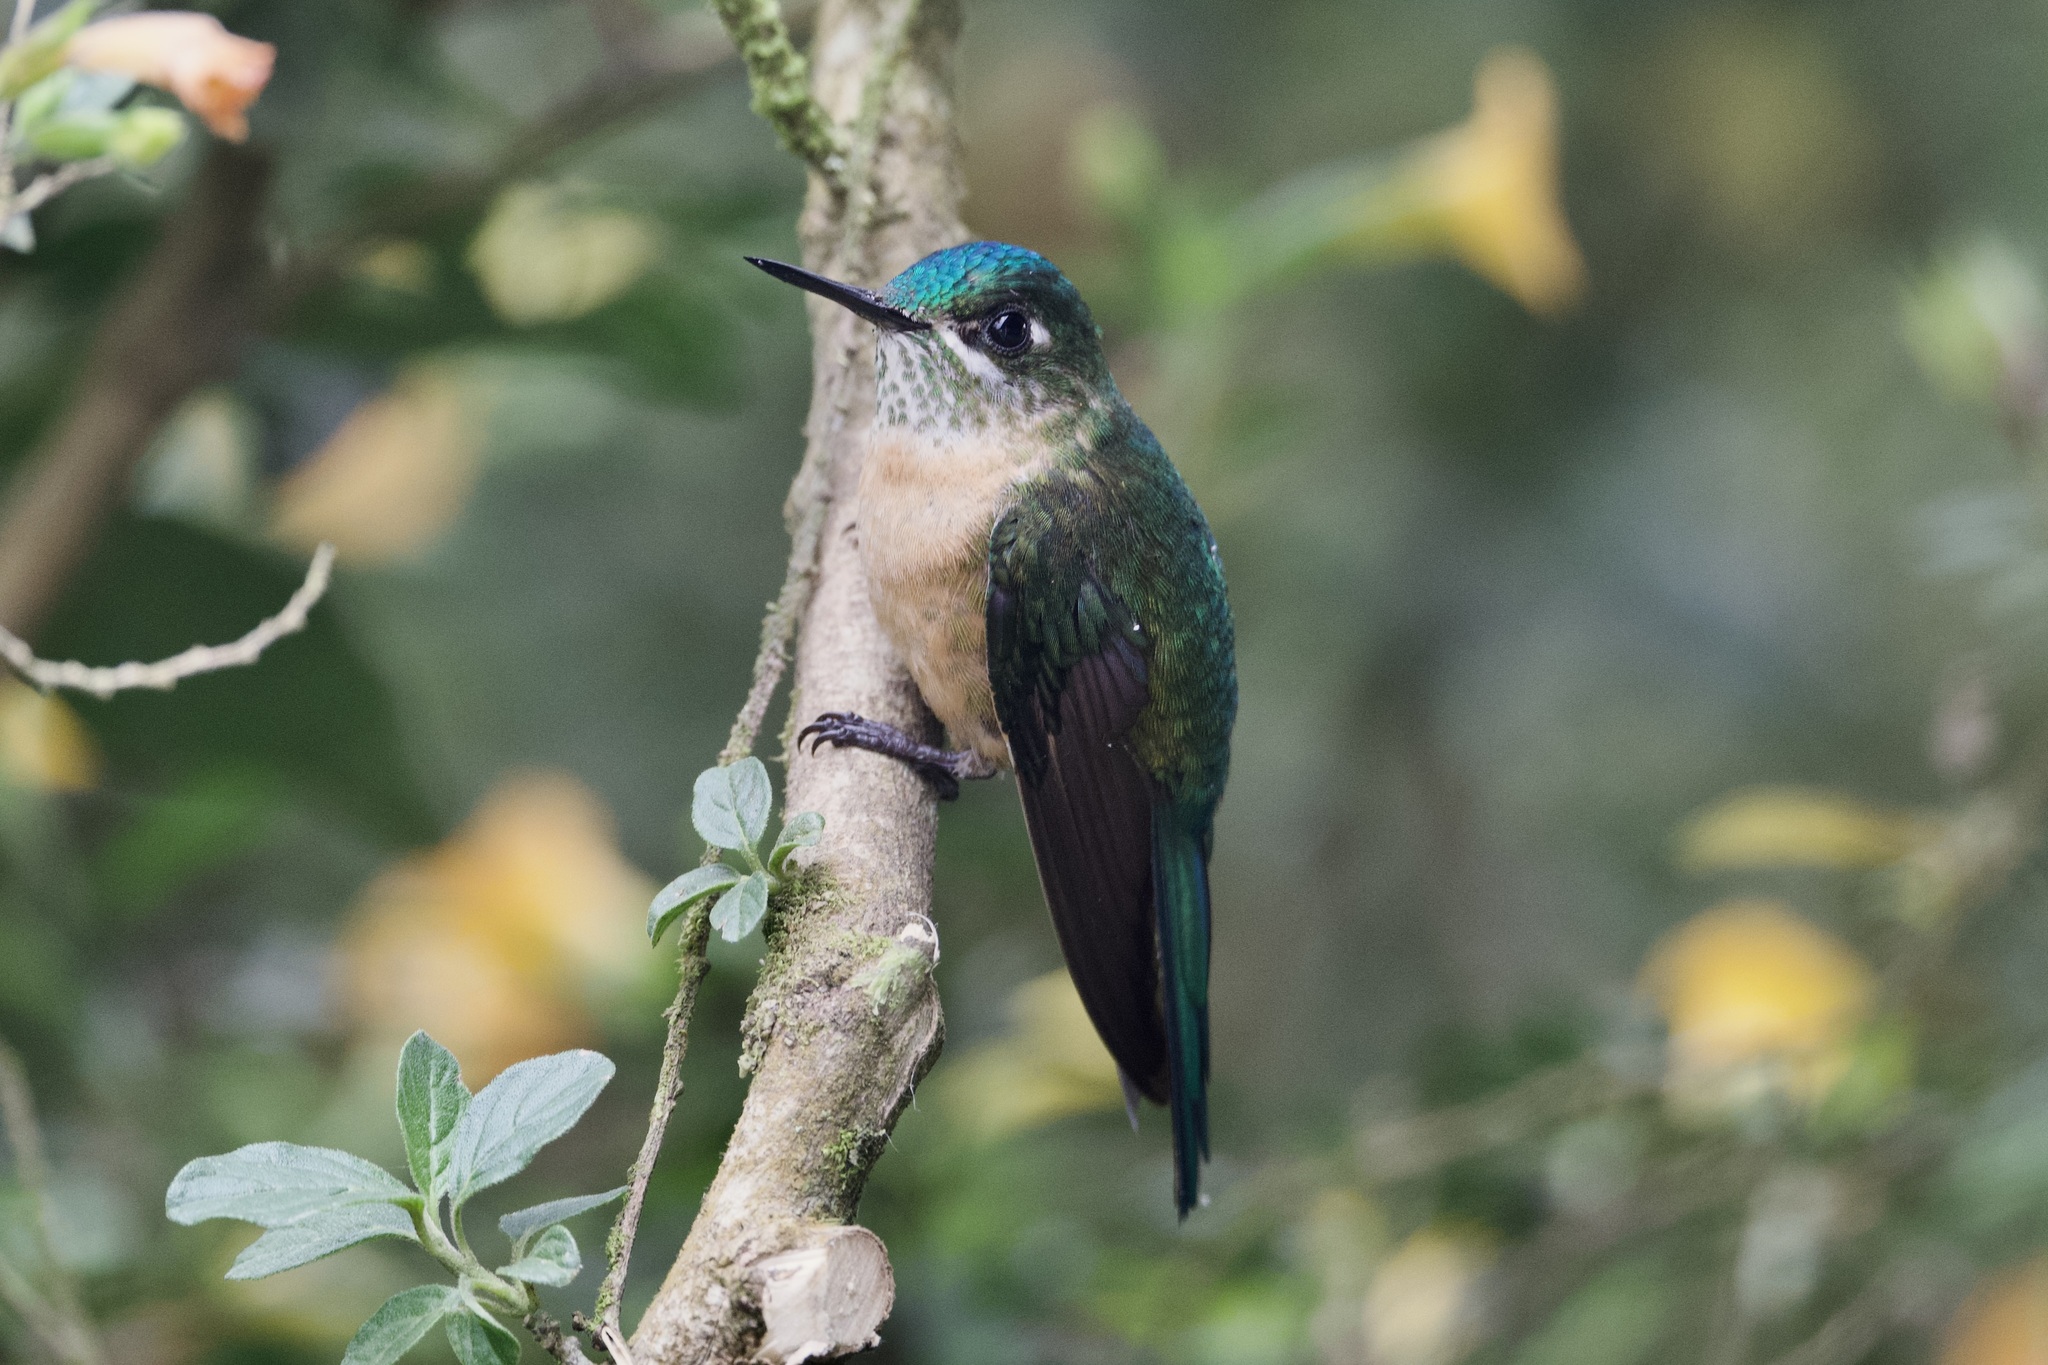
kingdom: Animalia
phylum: Chordata
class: Aves
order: Apodiformes
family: Trochilidae
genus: Aglaiocercus
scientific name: Aglaiocercus kingii
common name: Long-tailed sylph
